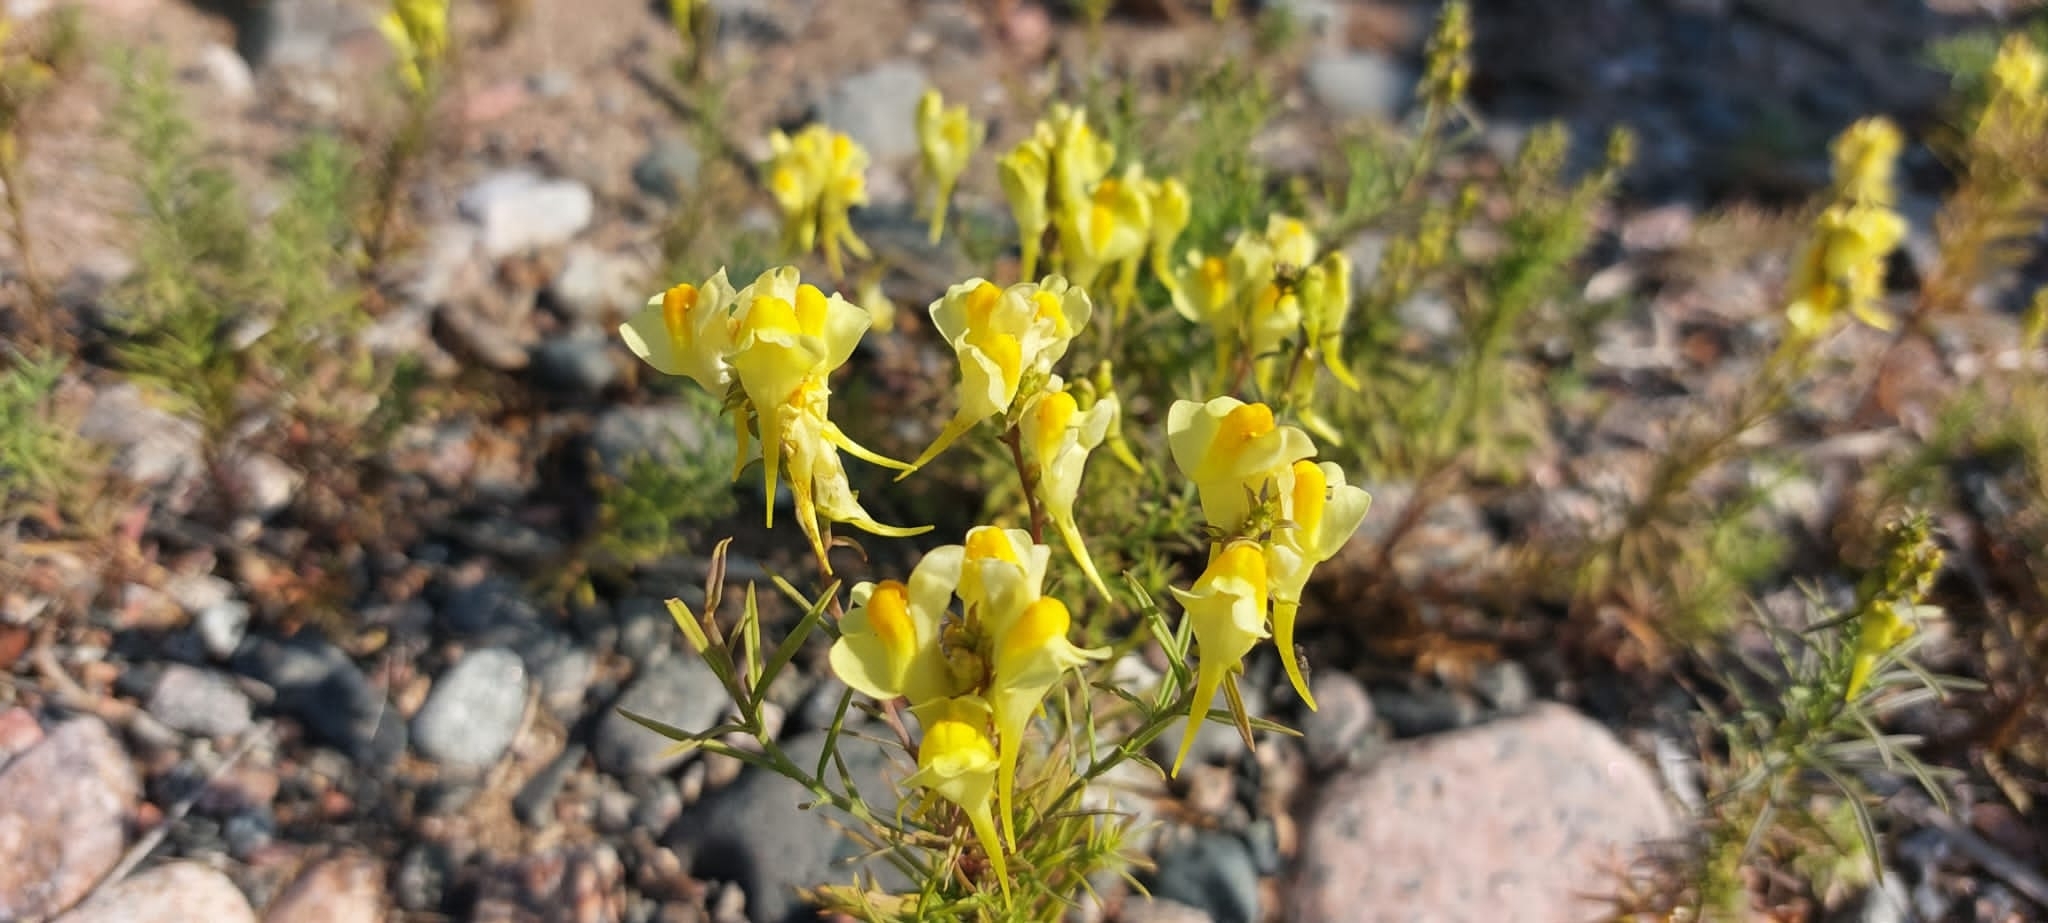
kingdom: Plantae
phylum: Tracheophyta
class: Magnoliopsida
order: Lamiales
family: Plantaginaceae
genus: Linaria
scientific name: Linaria vulgaris
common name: Butter and eggs
